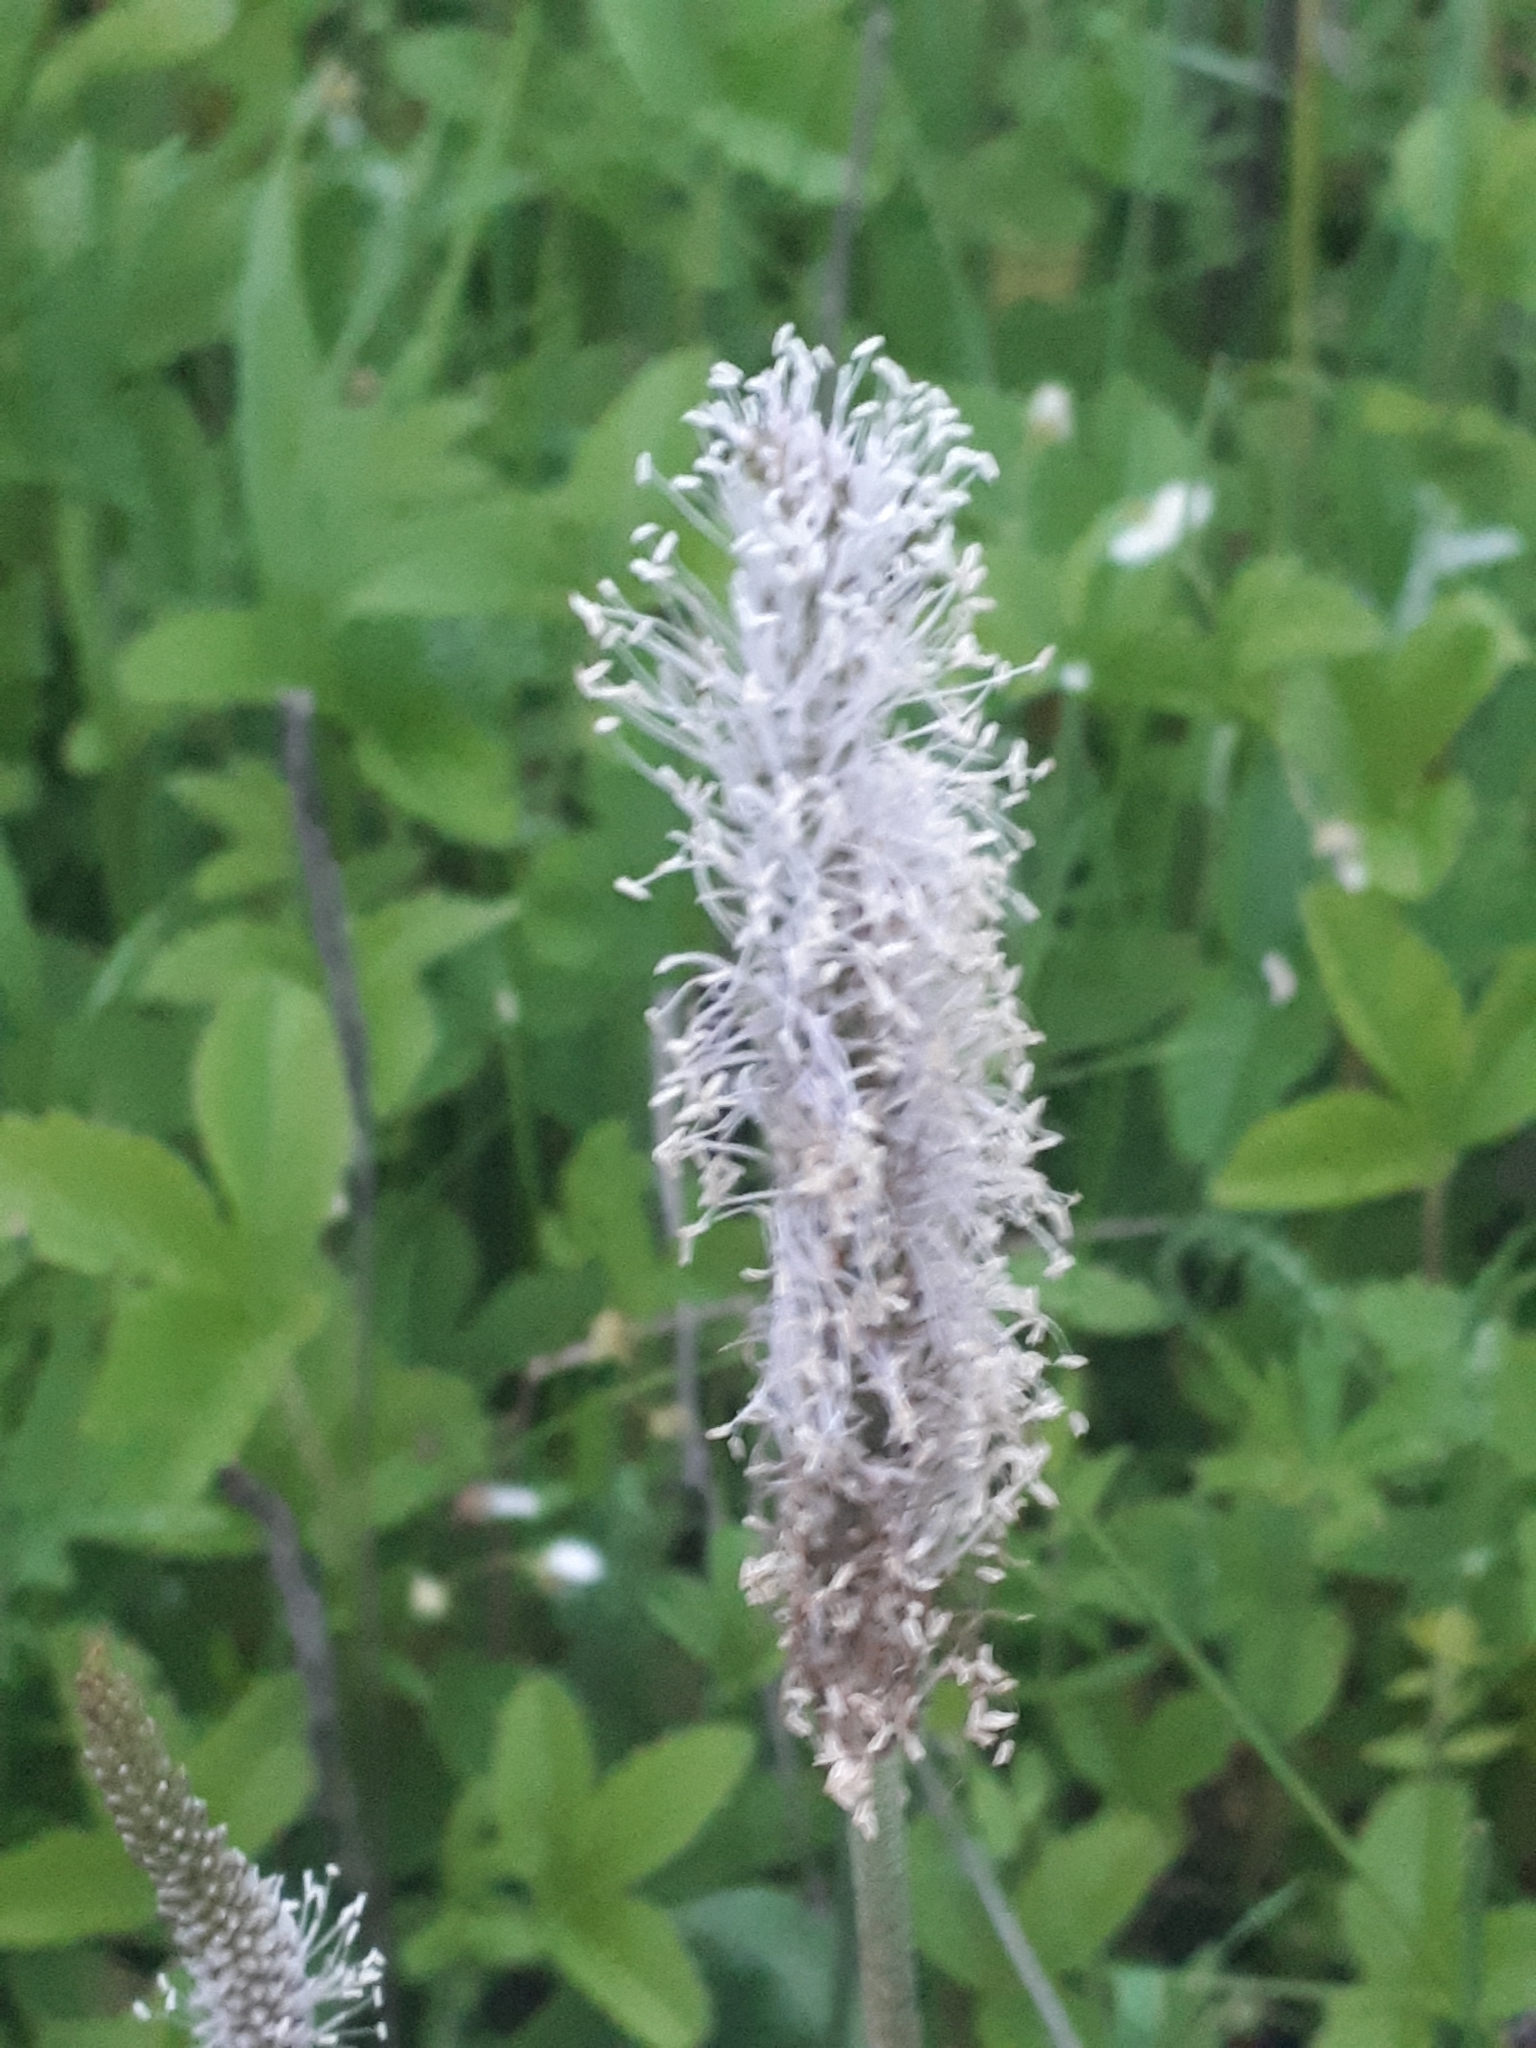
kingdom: Plantae
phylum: Tracheophyta
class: Magnoliopsida
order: Lamiales
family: Plantaginaceae
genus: Plantago
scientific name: Plantago media
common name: Hoary plantain
